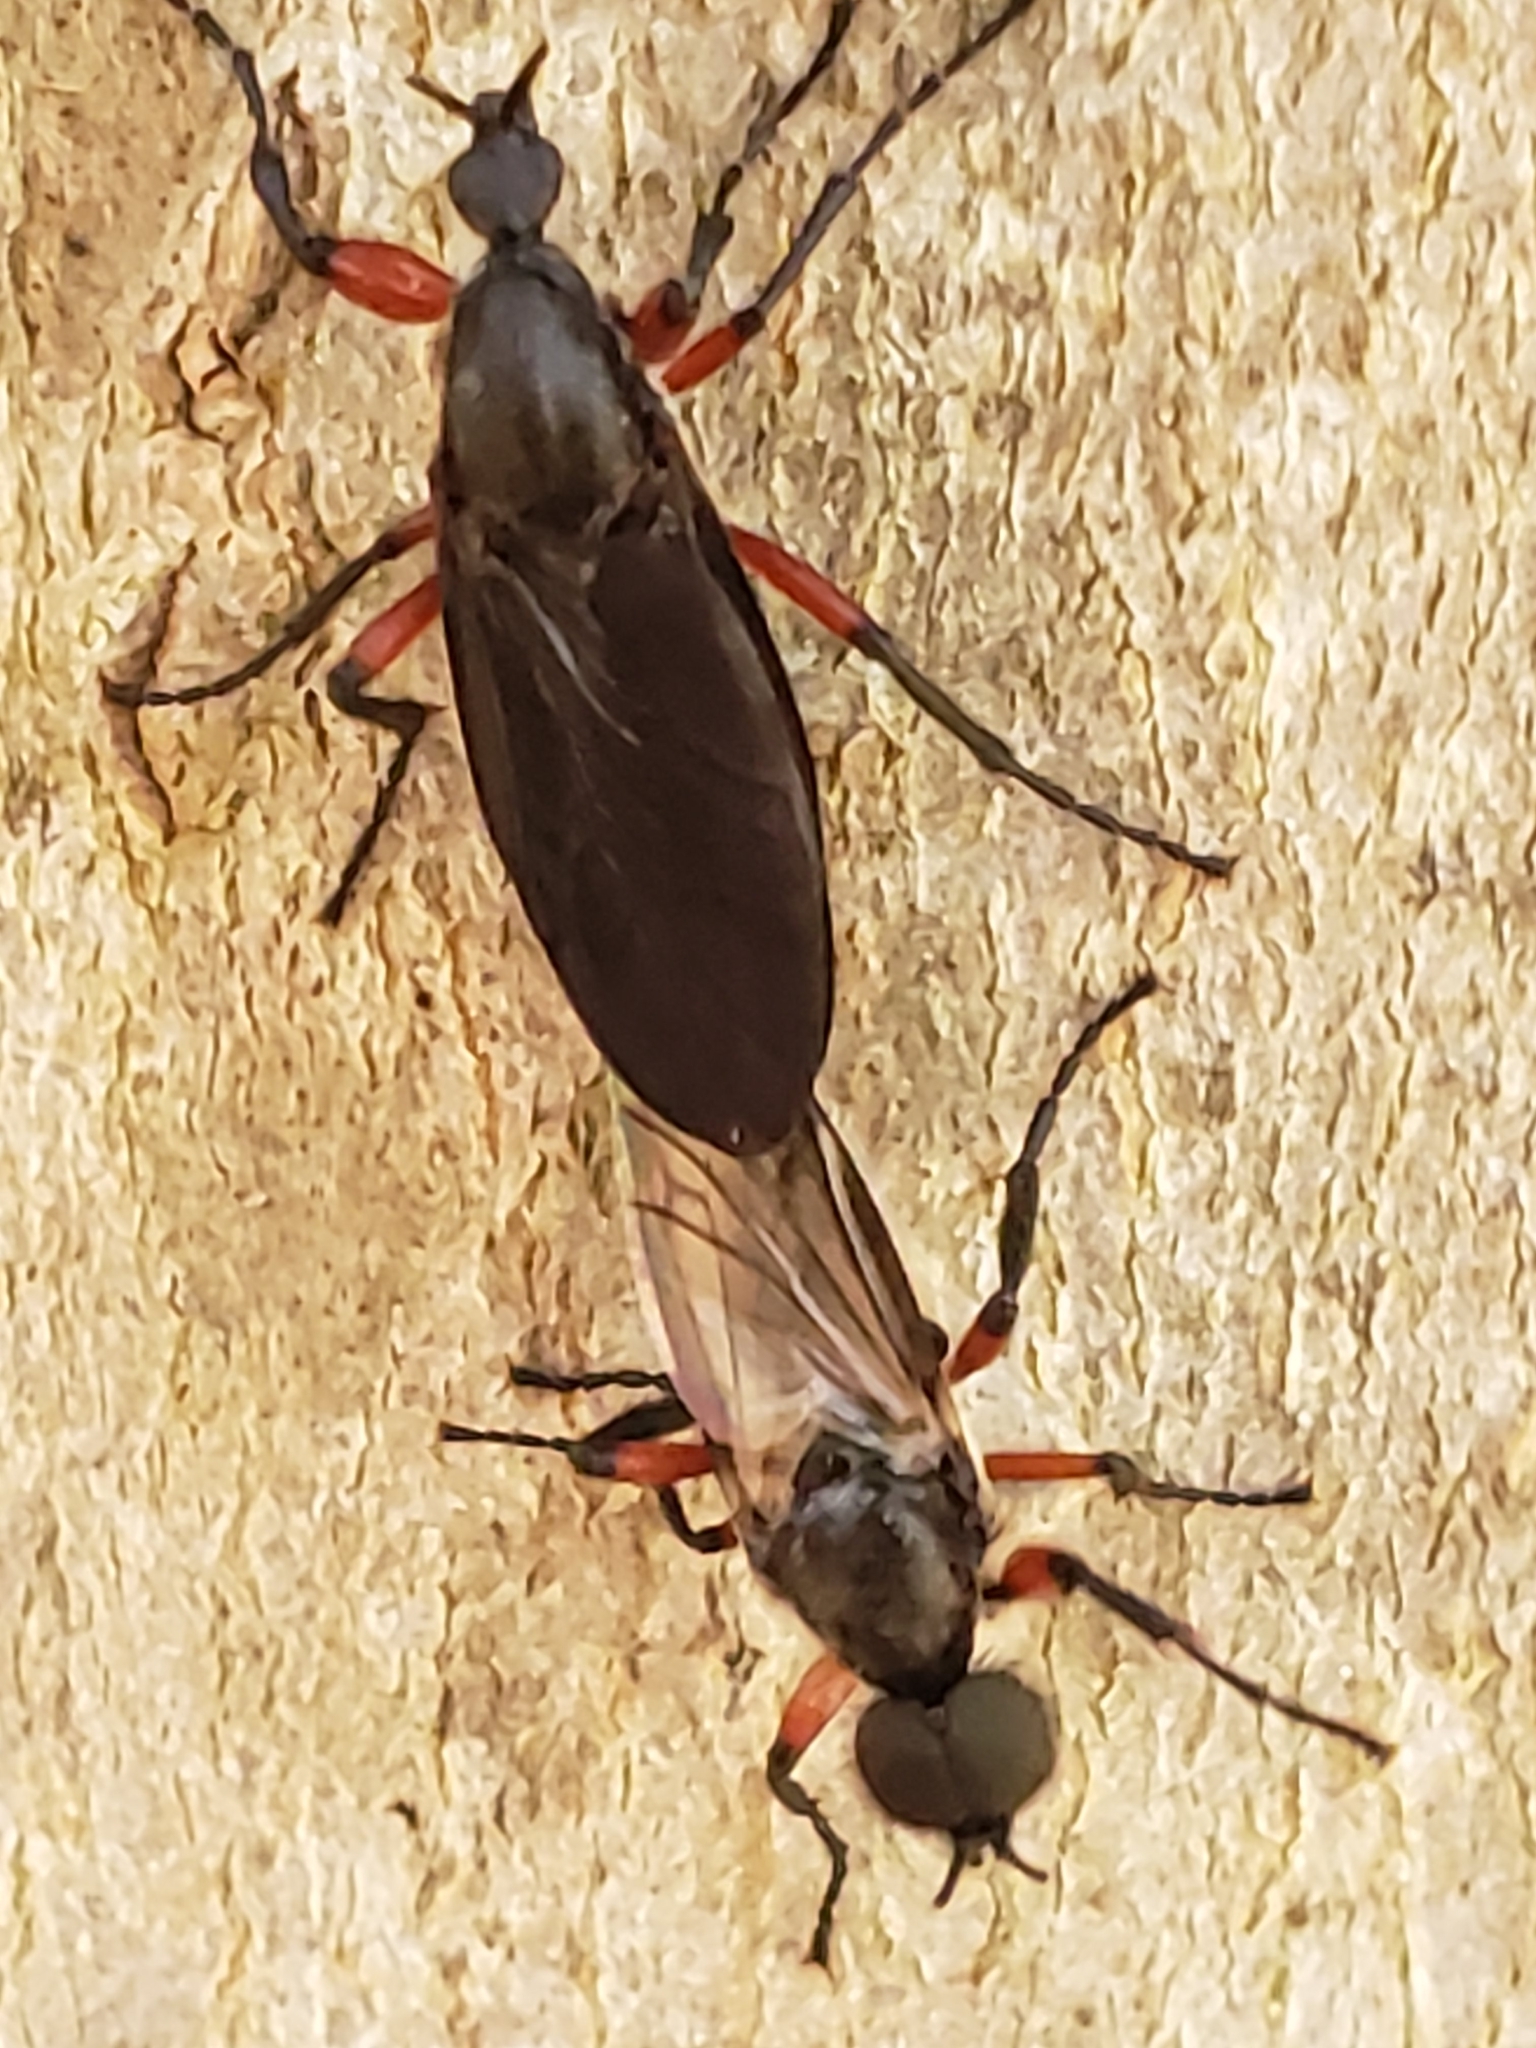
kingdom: Animalia
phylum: Arthropoda
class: Insecta
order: Diptera
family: Bibionidae
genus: Bibio
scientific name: Bibio femoratus
